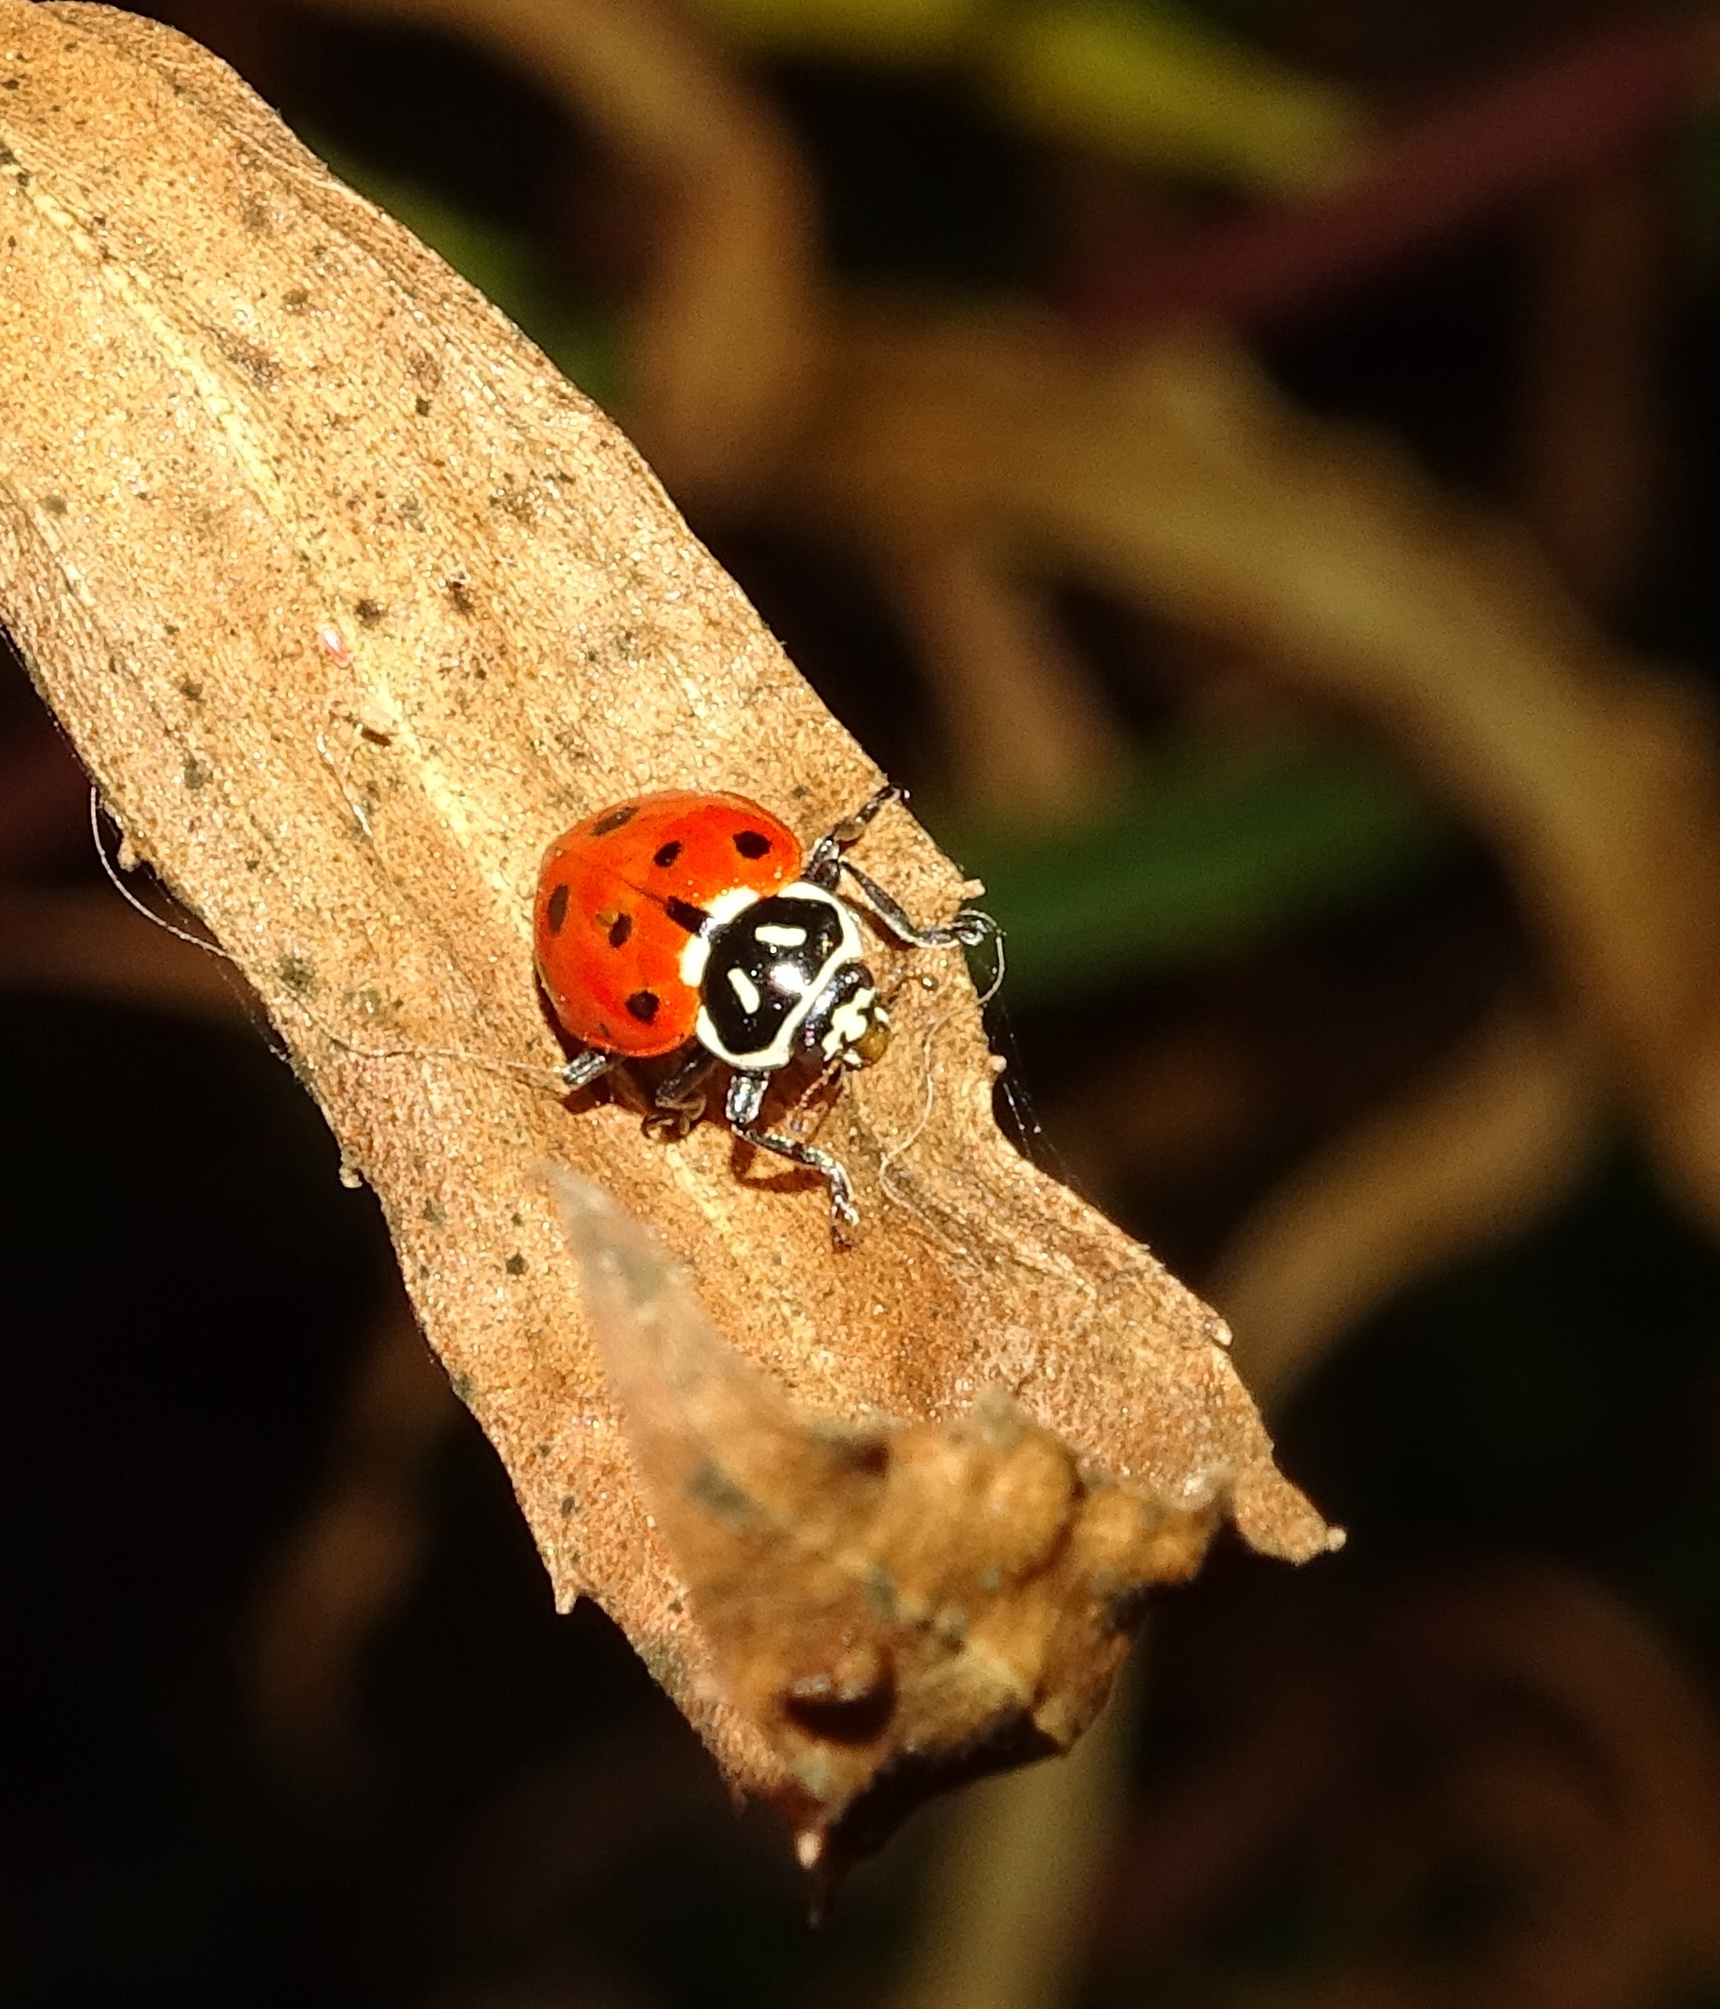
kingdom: Animalia
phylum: Arthropoda
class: Insecta
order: Coleoptera
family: Coccinellidae
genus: Hippodamia
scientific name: Hippodamia convergens
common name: Convergent lady beetle
